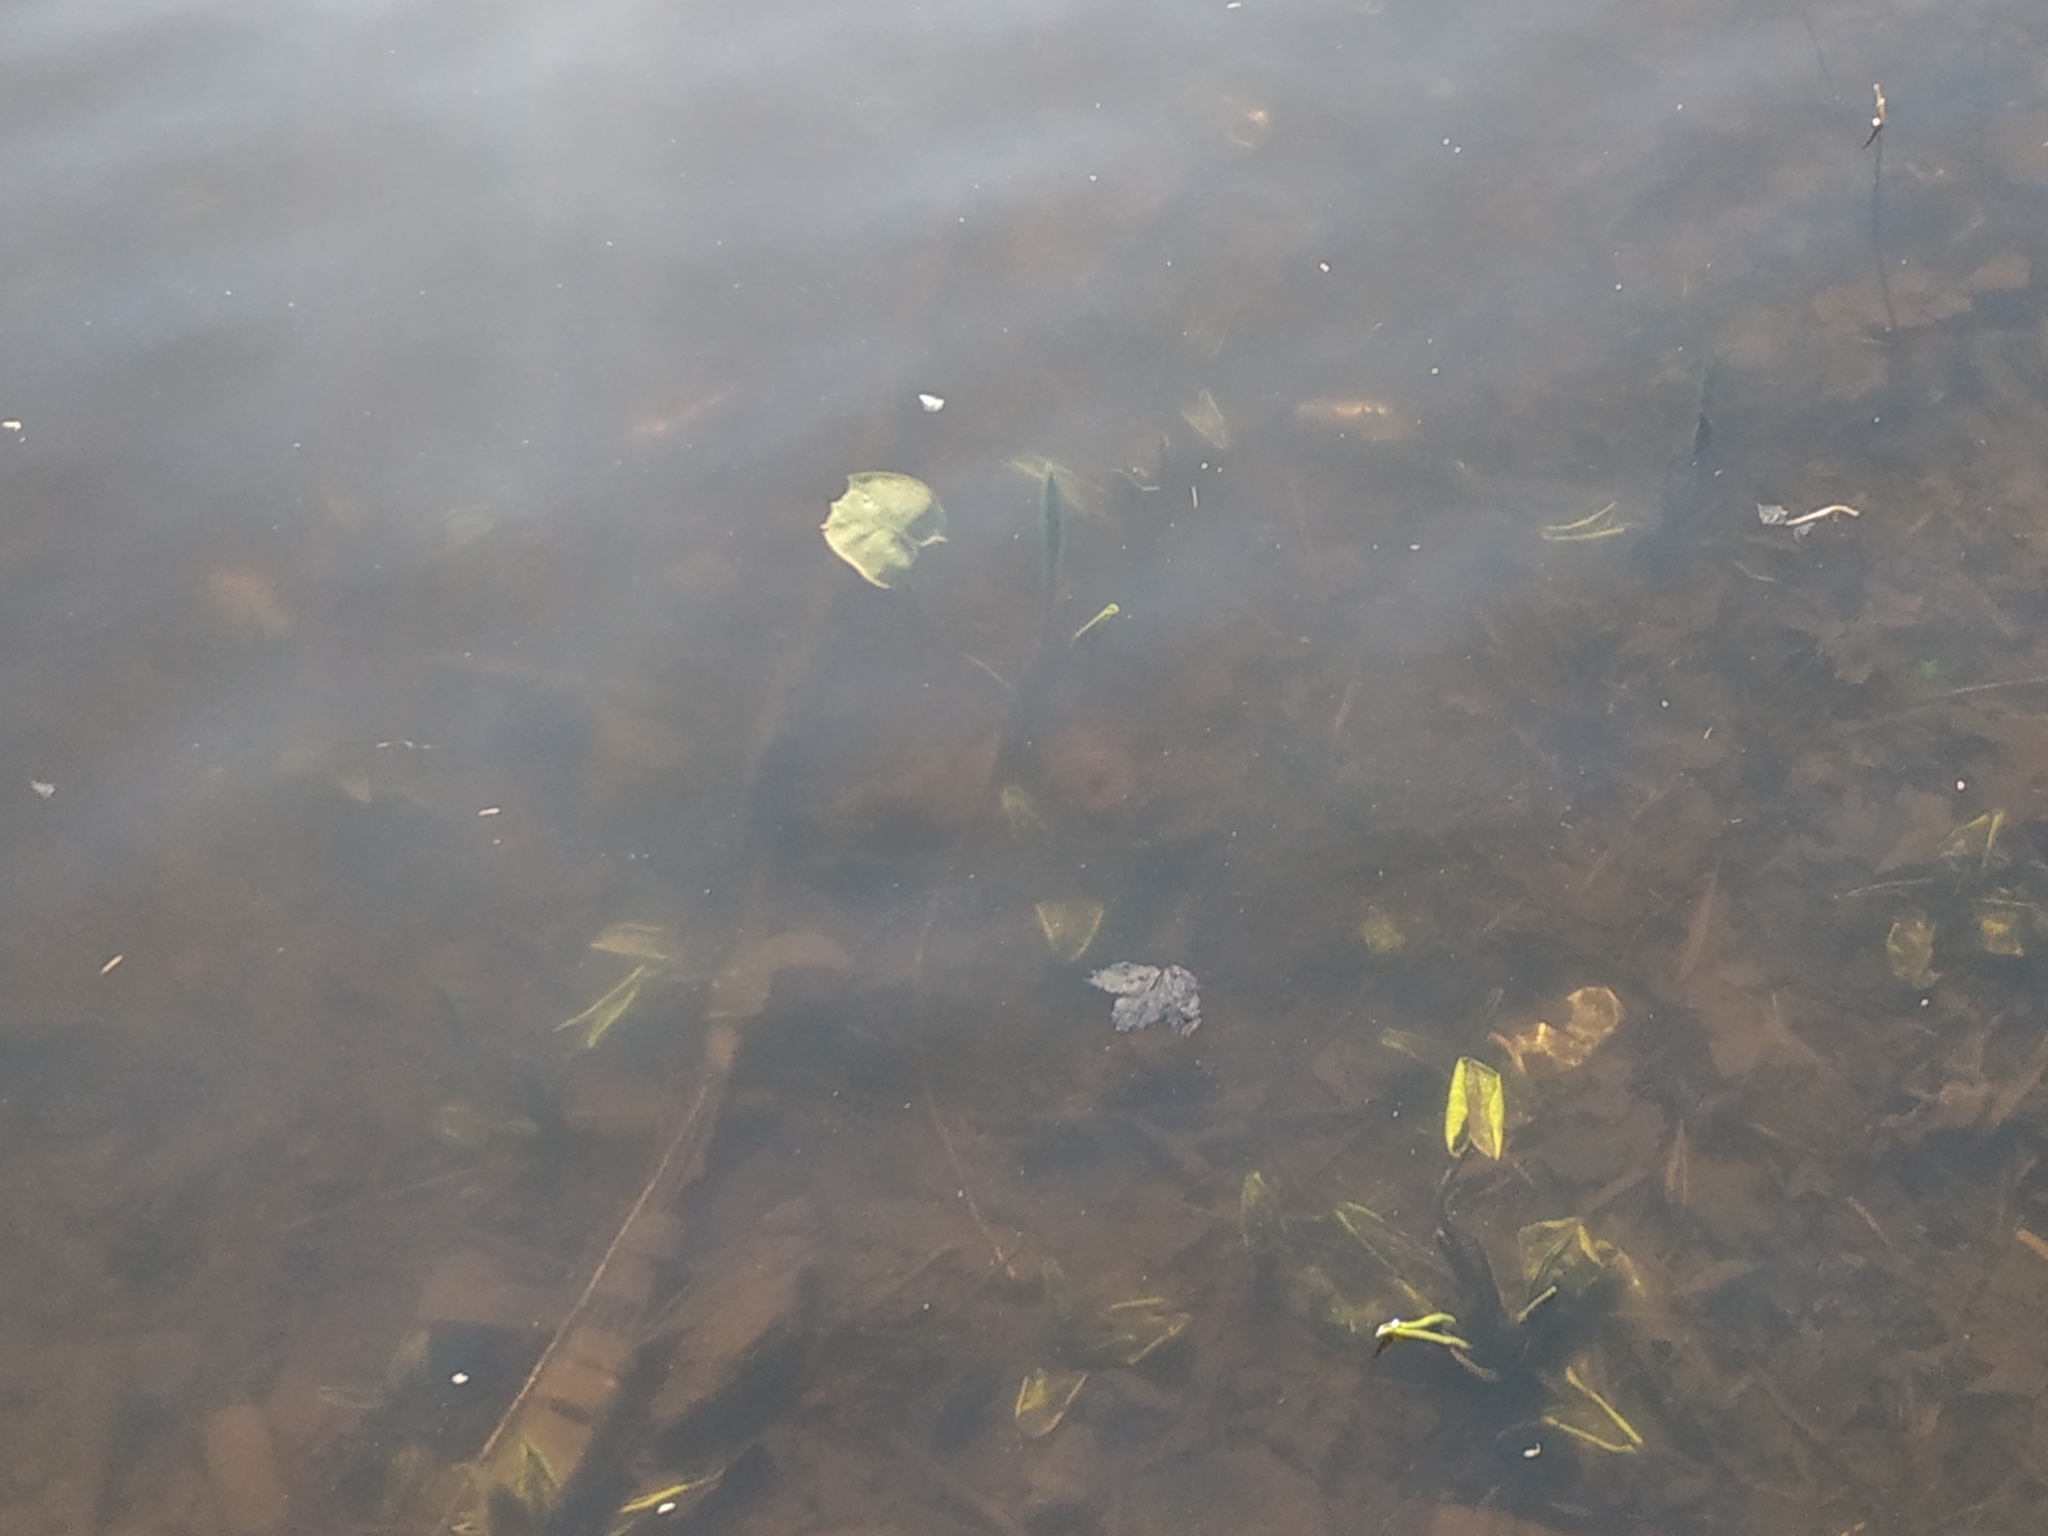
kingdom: Plantae
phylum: Tracheophyta
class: Magnoliopsida
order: Nymphaeales
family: Nymphaeaceae
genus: Nuphar
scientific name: Nuphar lutea
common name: Yellow water-lily
